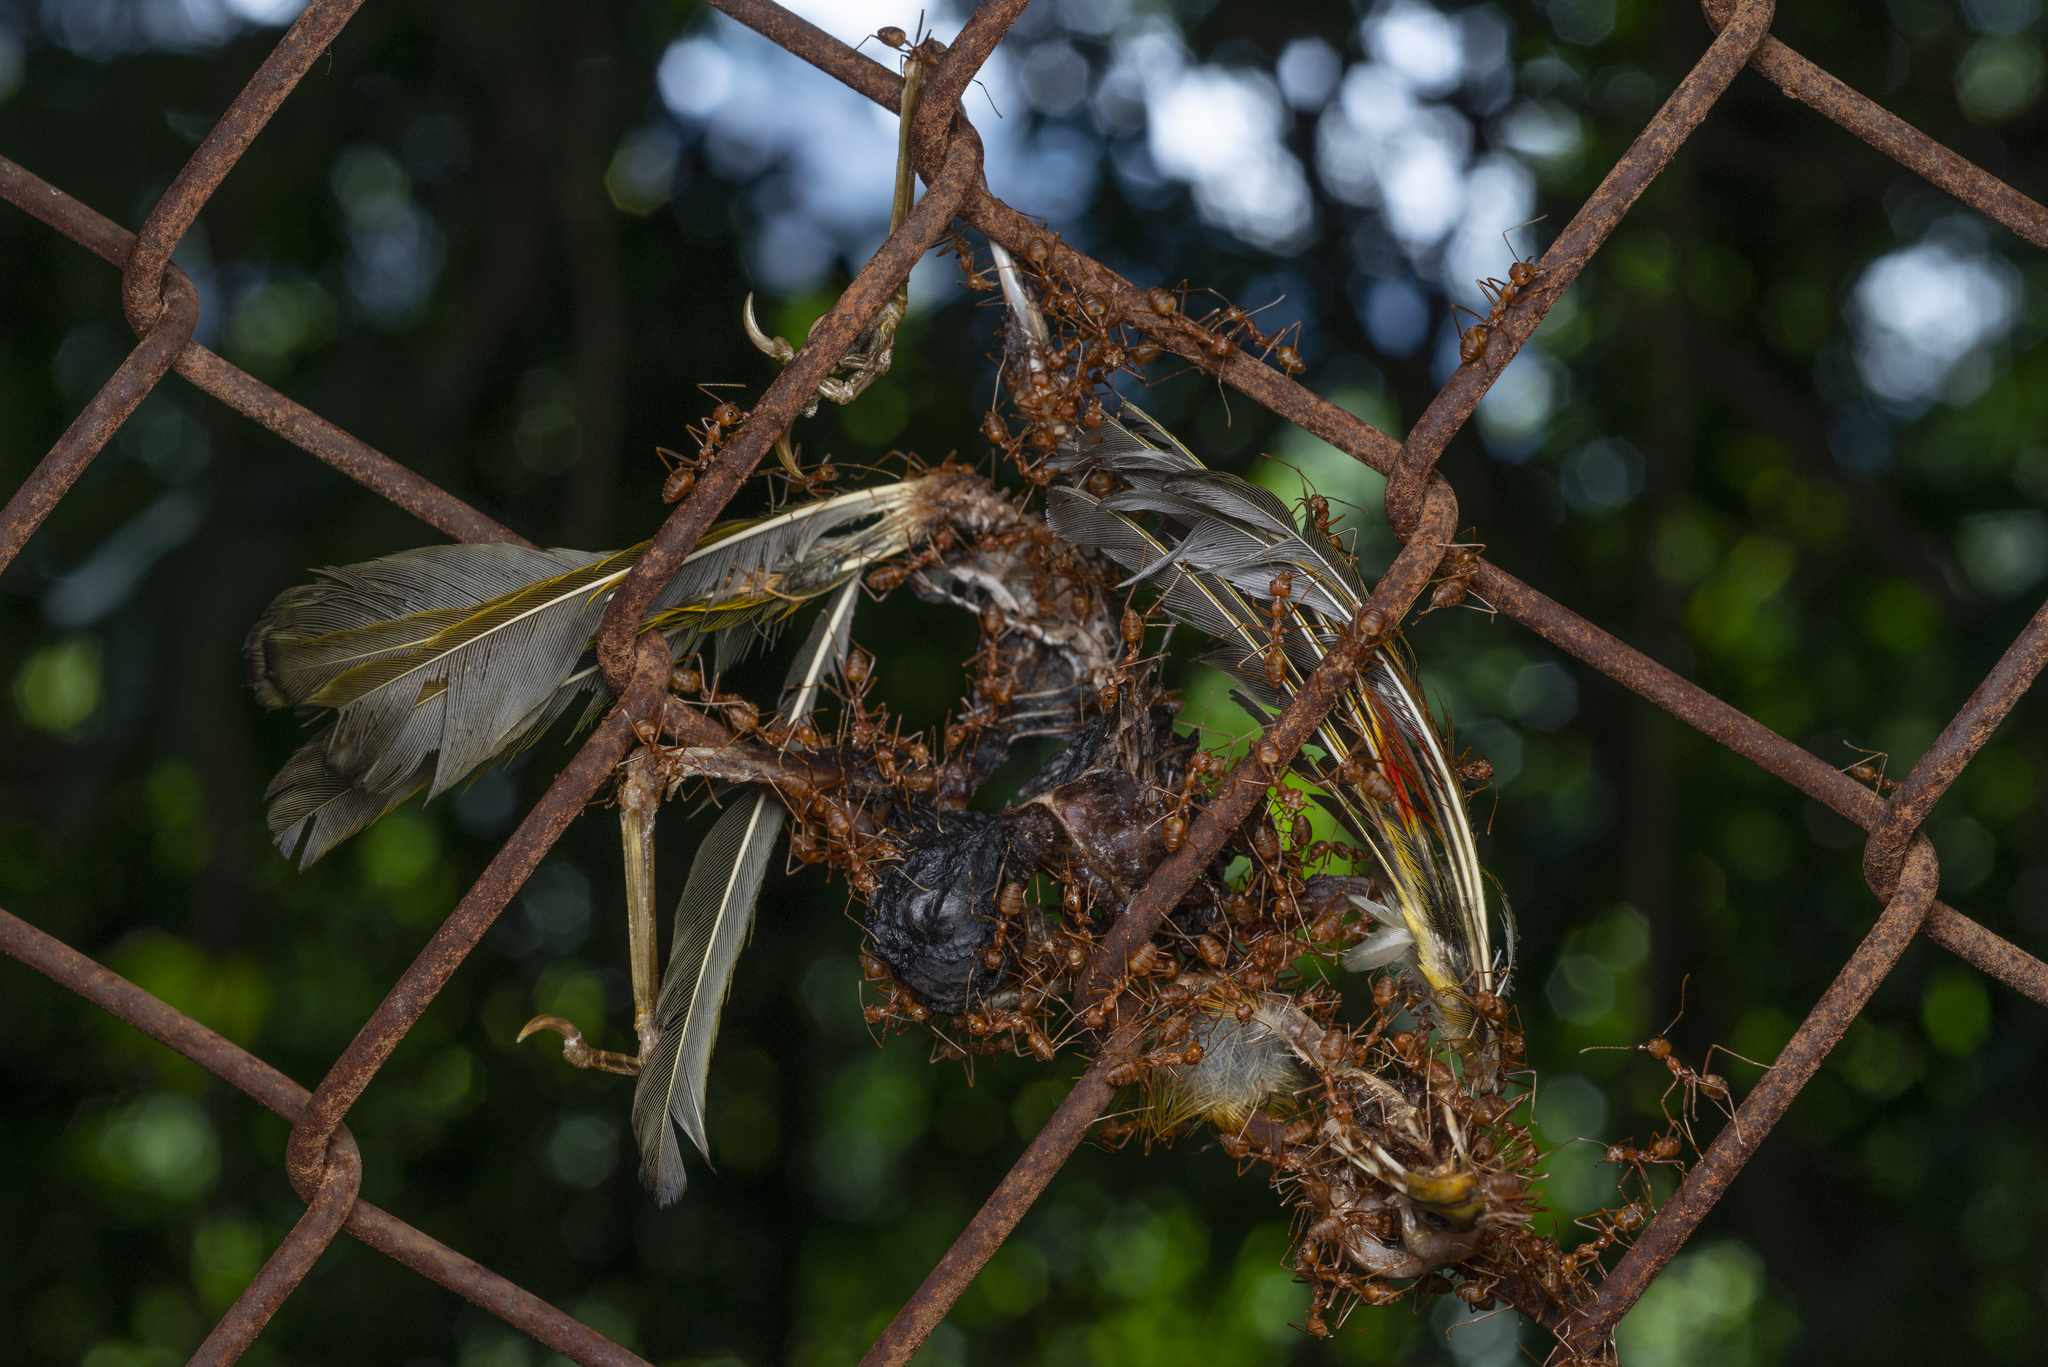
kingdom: Animalia
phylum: Arthropoda
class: Insecta
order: Hymenoptera
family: Formicidae
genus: Oecophylla
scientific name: Oecophylla smaragdina
